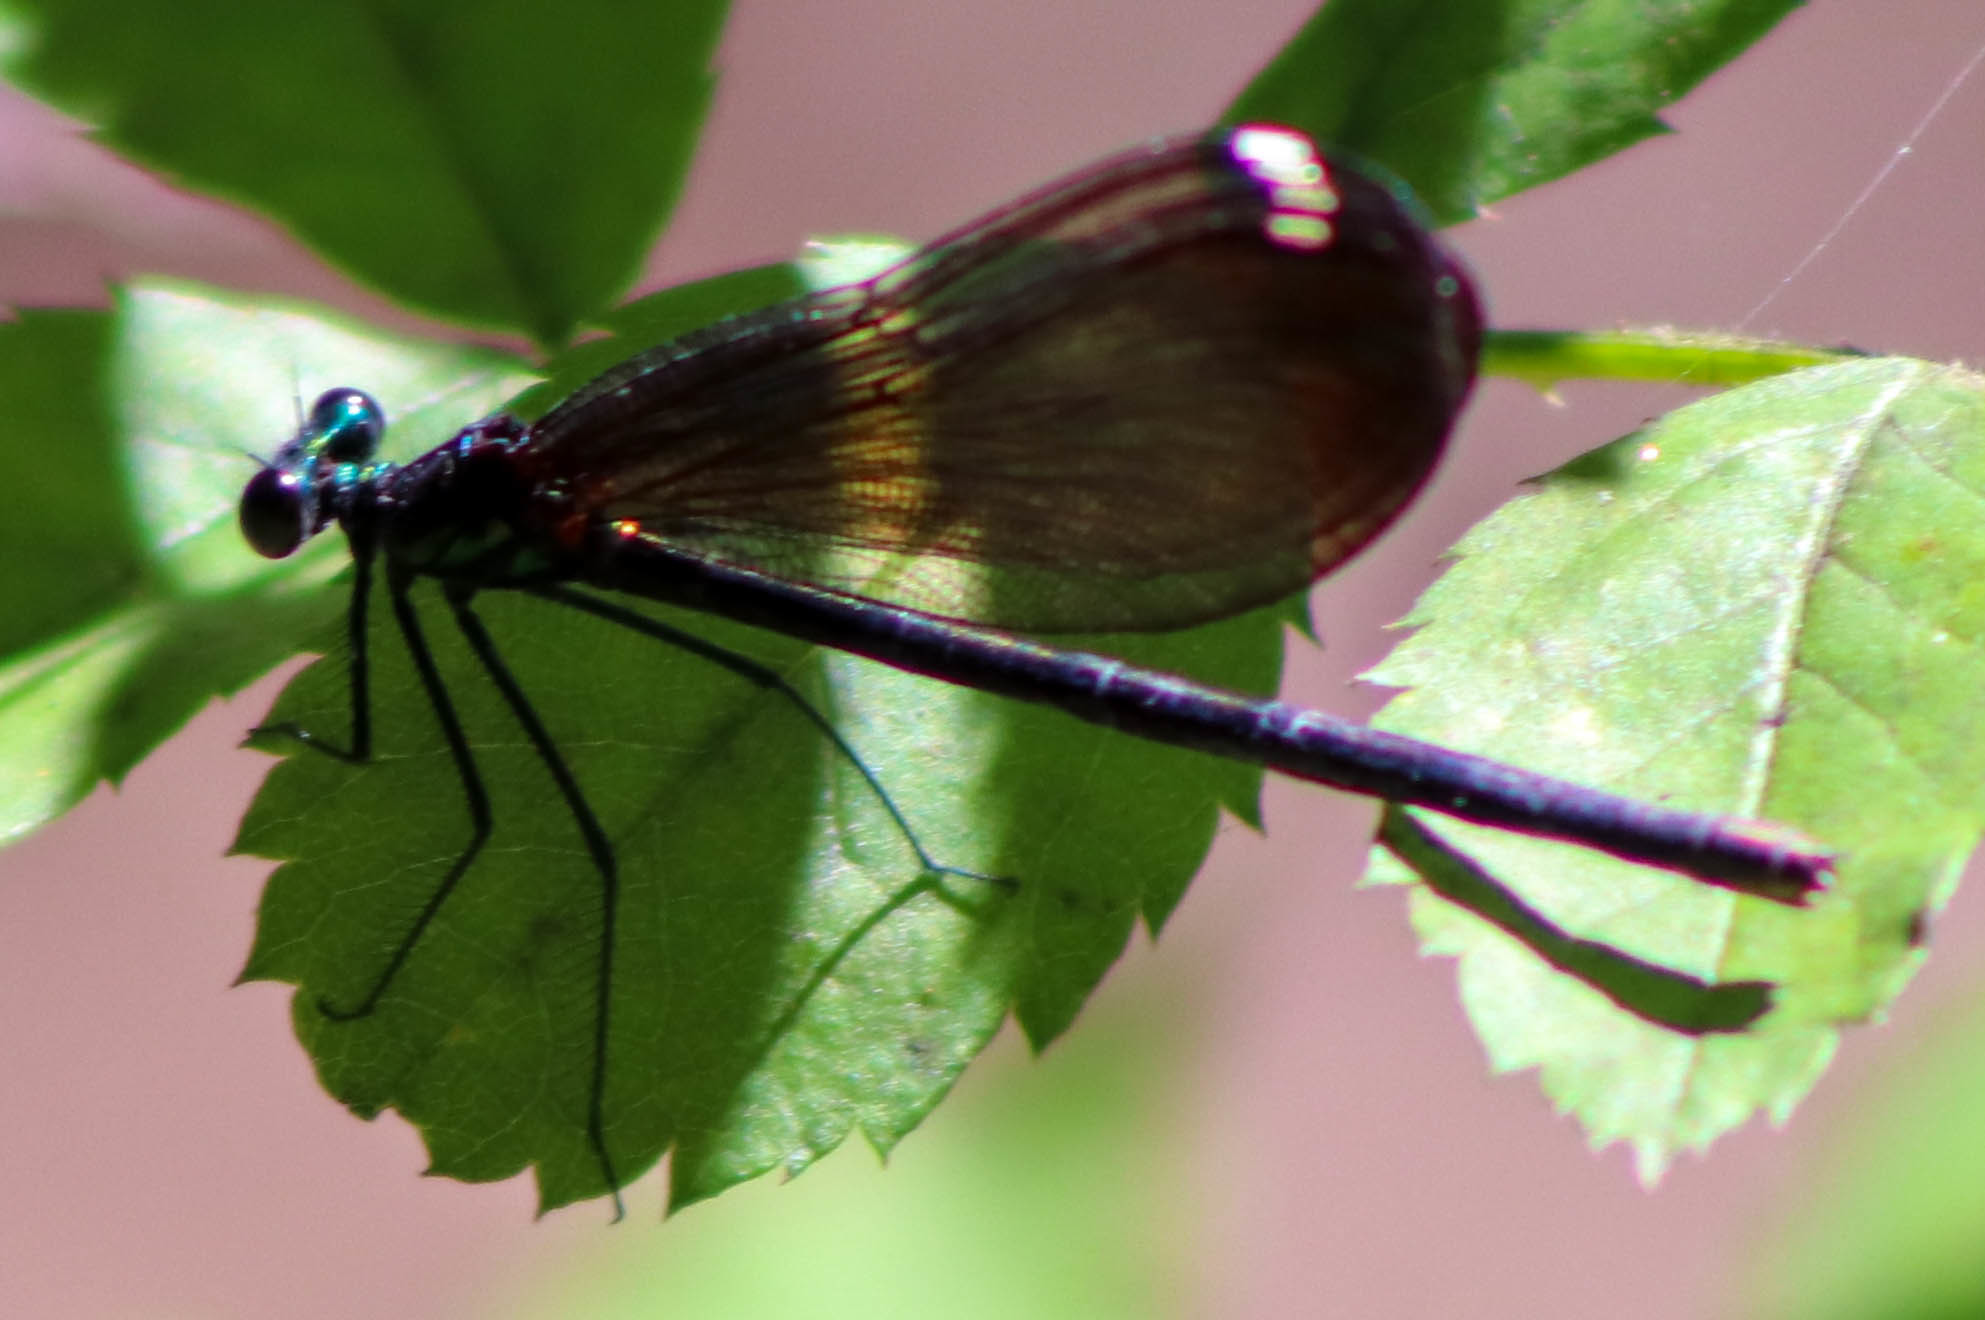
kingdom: Animalia
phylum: Arthropoda
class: Insecta
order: Odonata
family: Calopterygidae
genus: Calopteryx
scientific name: Calopteryx maculata
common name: Ebony jewelwing
